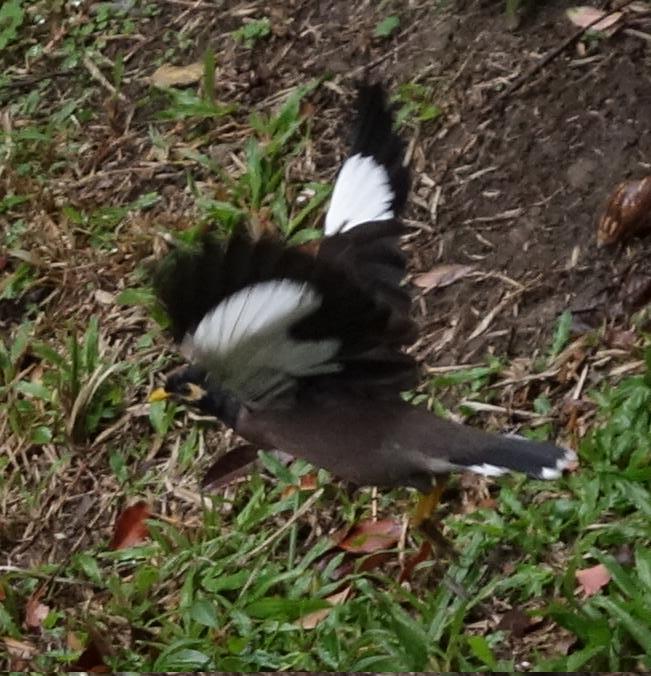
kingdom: Animalia
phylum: Chordata
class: Aves
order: Passeriformes
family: Sturnidae
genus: Acridotheres
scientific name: Acridotheres tristis
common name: Common myna
